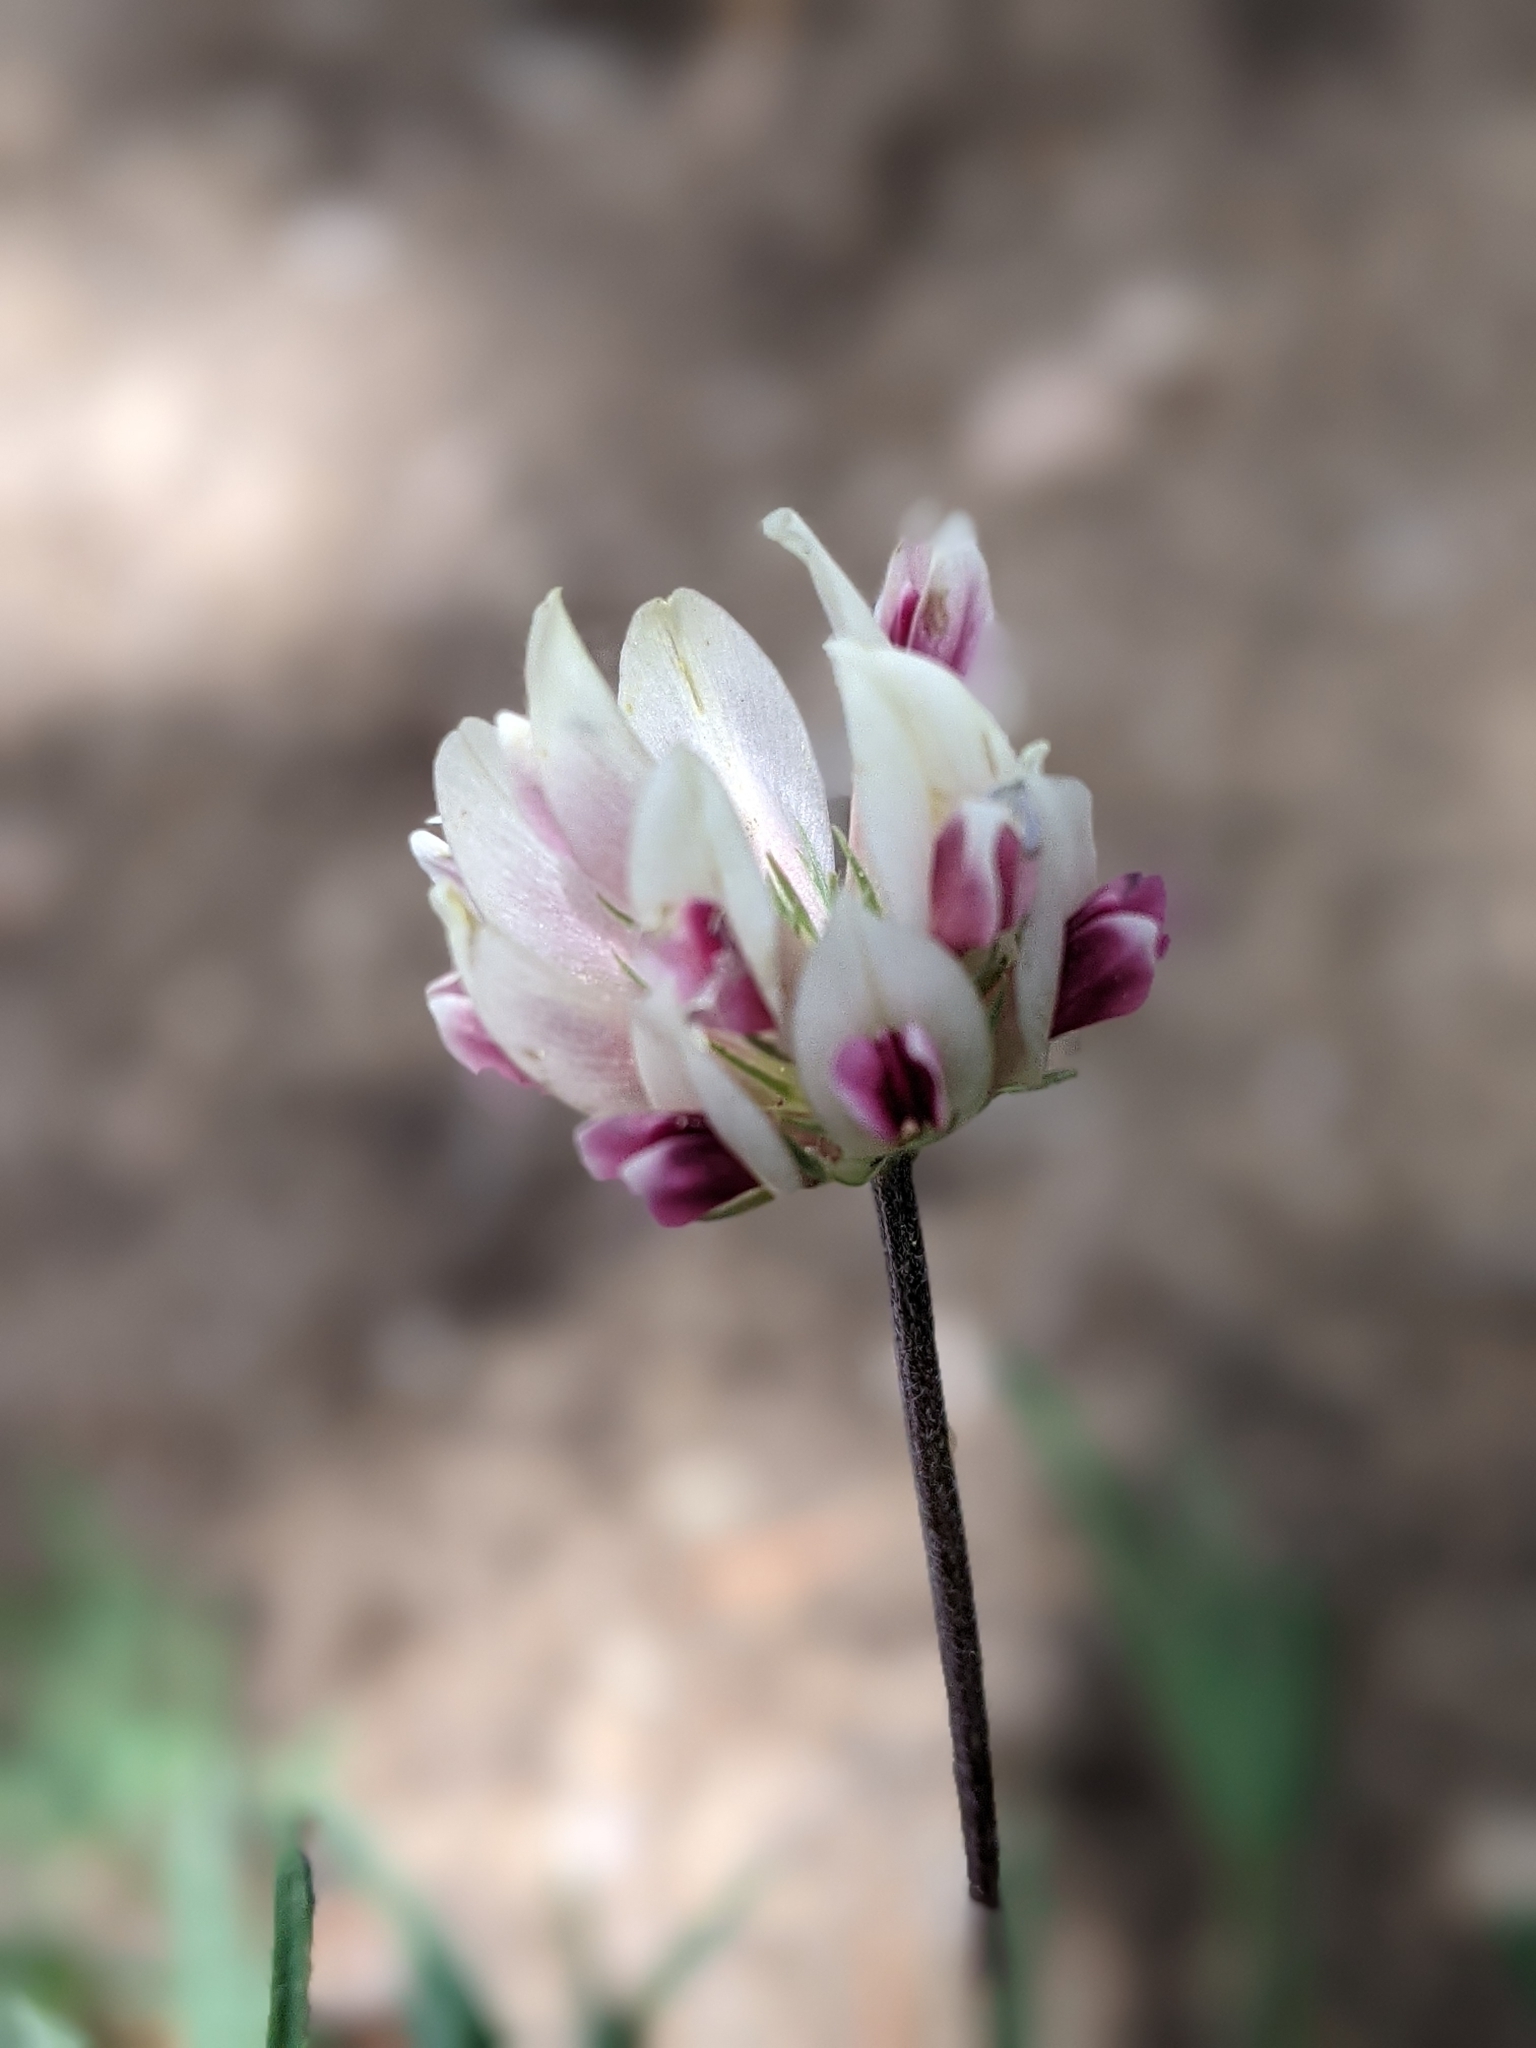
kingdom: Plantae
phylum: Tracheophyta
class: Magnoliopsida
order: Fabales
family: Fabaceae
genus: Trifolium
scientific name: Trifolium dasyphyllum
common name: Whip-root clover
